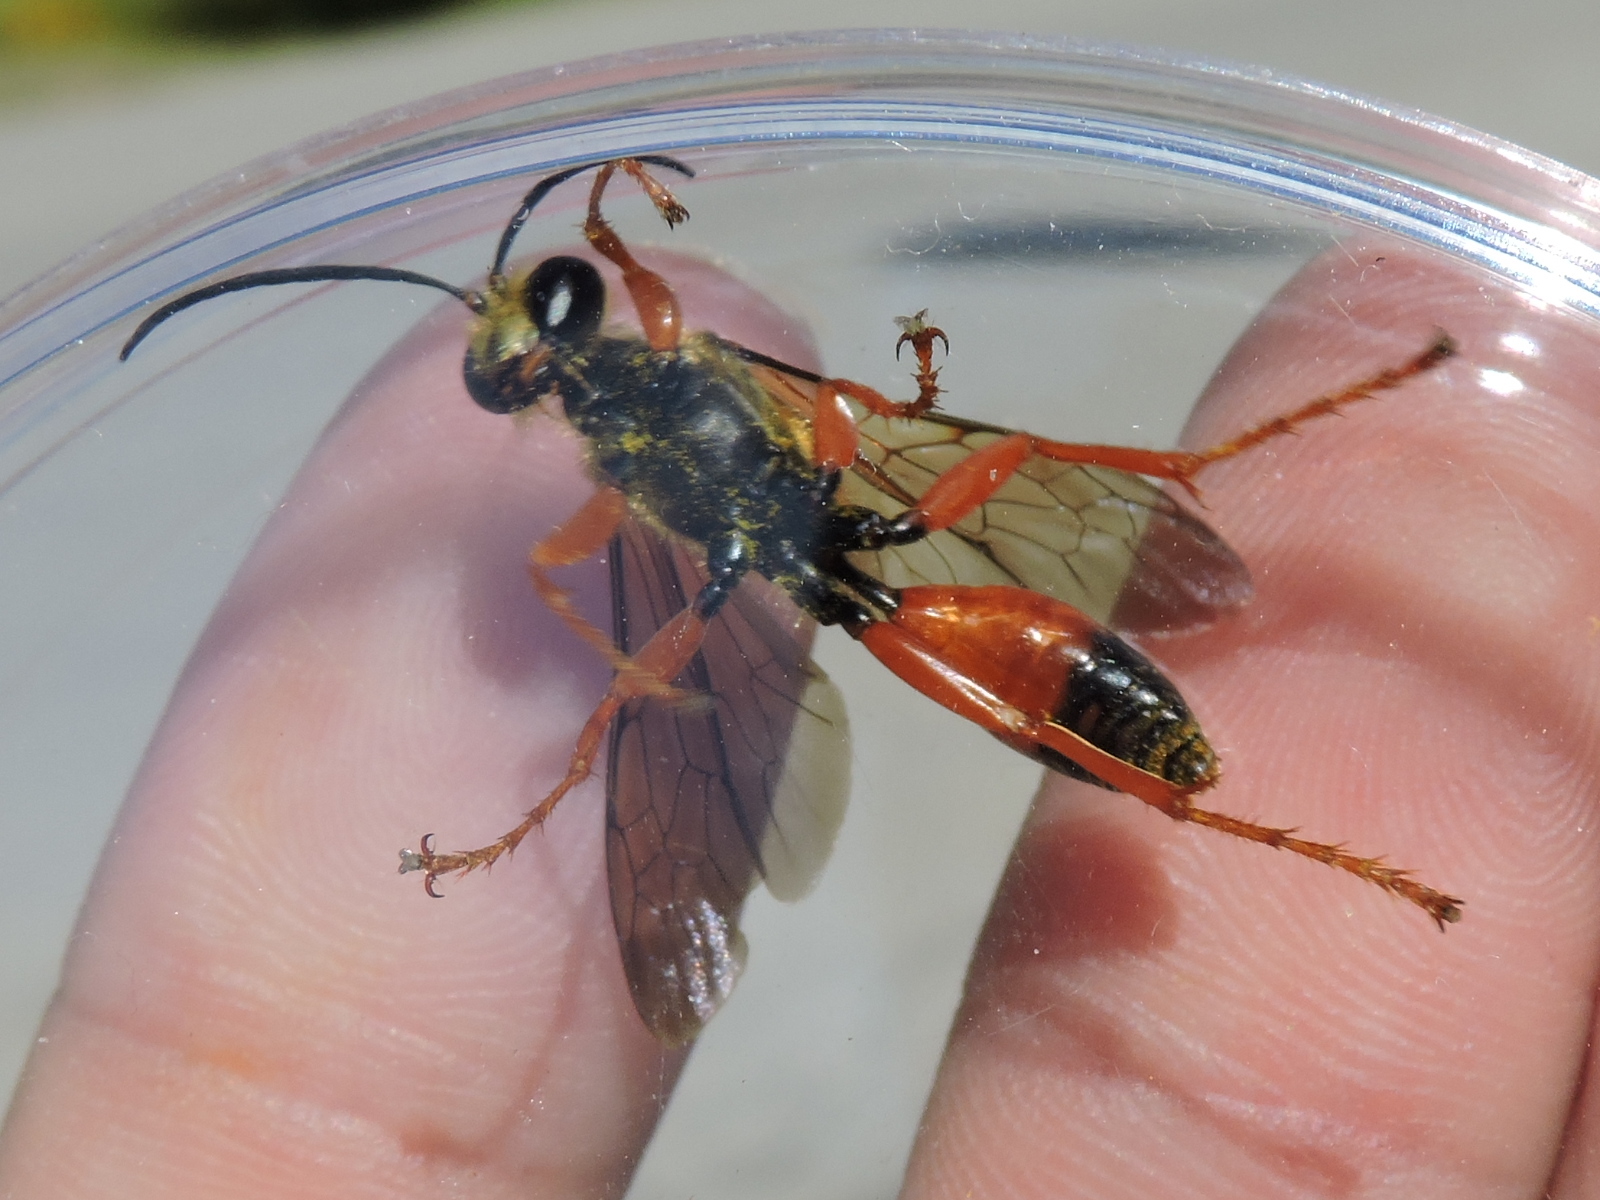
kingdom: Animalia
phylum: Arthropoda
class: Insecta
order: Hymenoptera
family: Sphecidae
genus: Sphex
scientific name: Sphex ichneumoneus
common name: Great golden digger wasp
